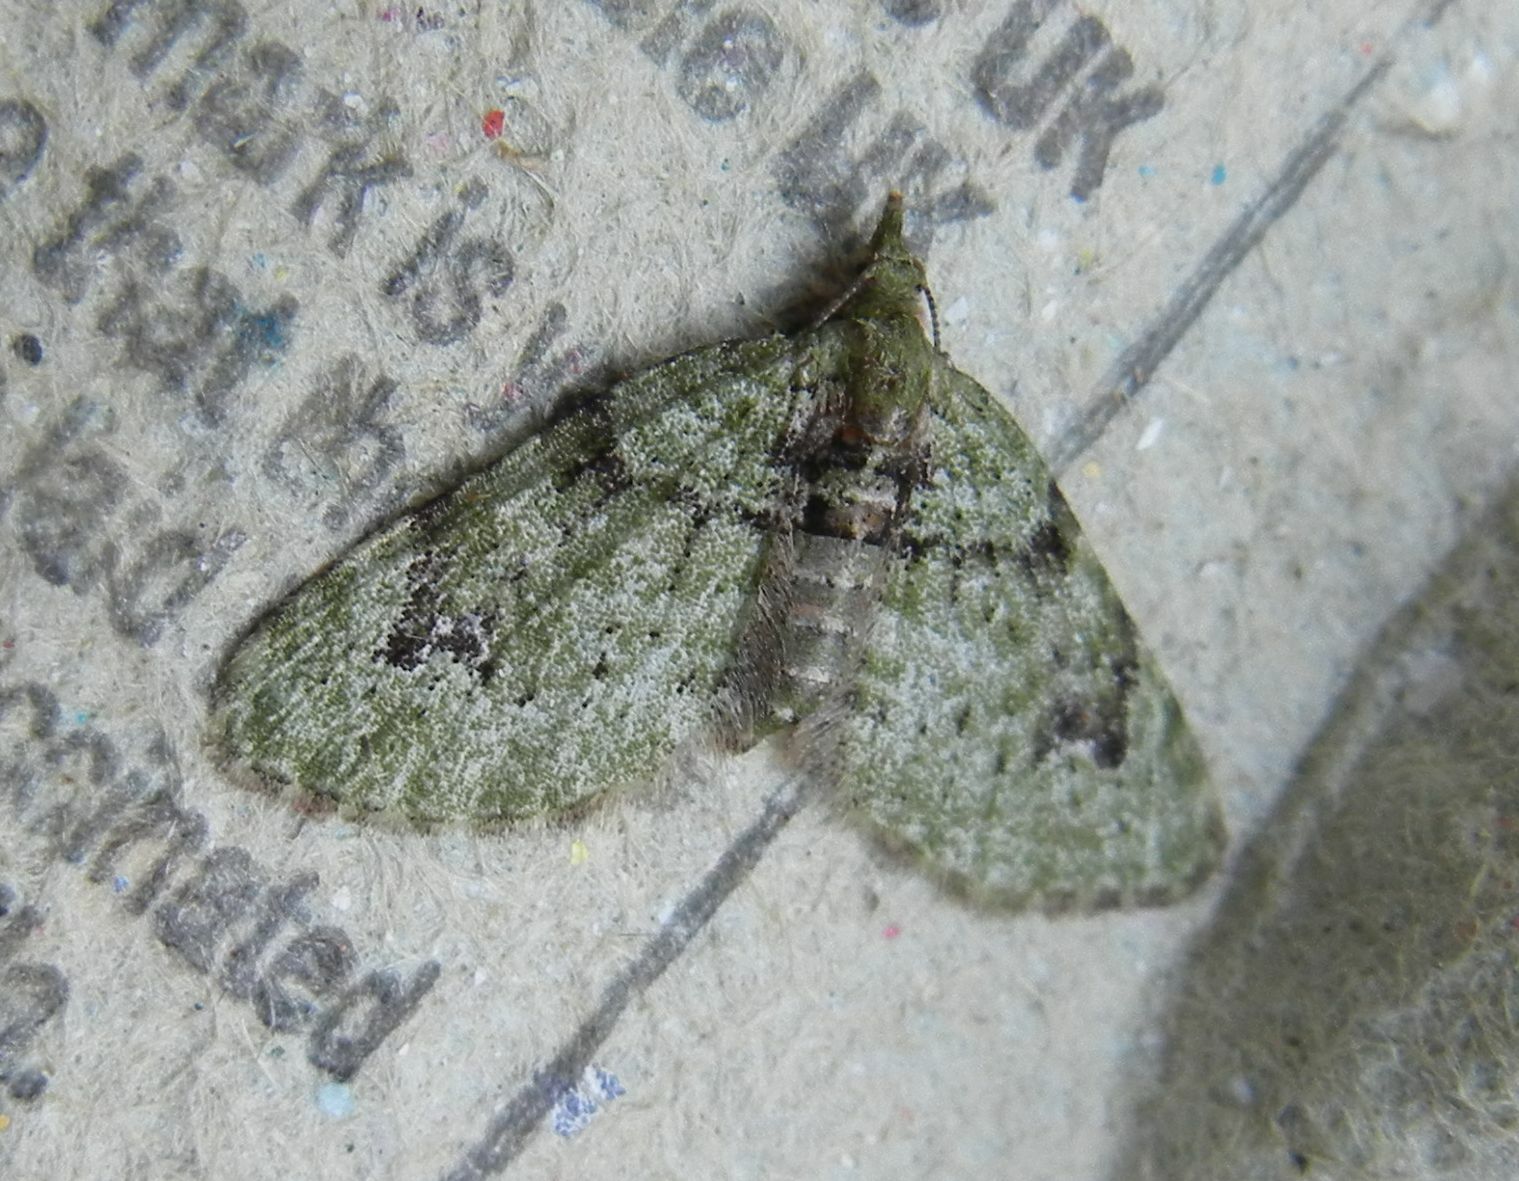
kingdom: Animalia
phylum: Arthropoda
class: Insecta
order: Lepidoptera
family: Geometridae
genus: Chloroclystis
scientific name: Chloroclystis v-ata
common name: V-pug
